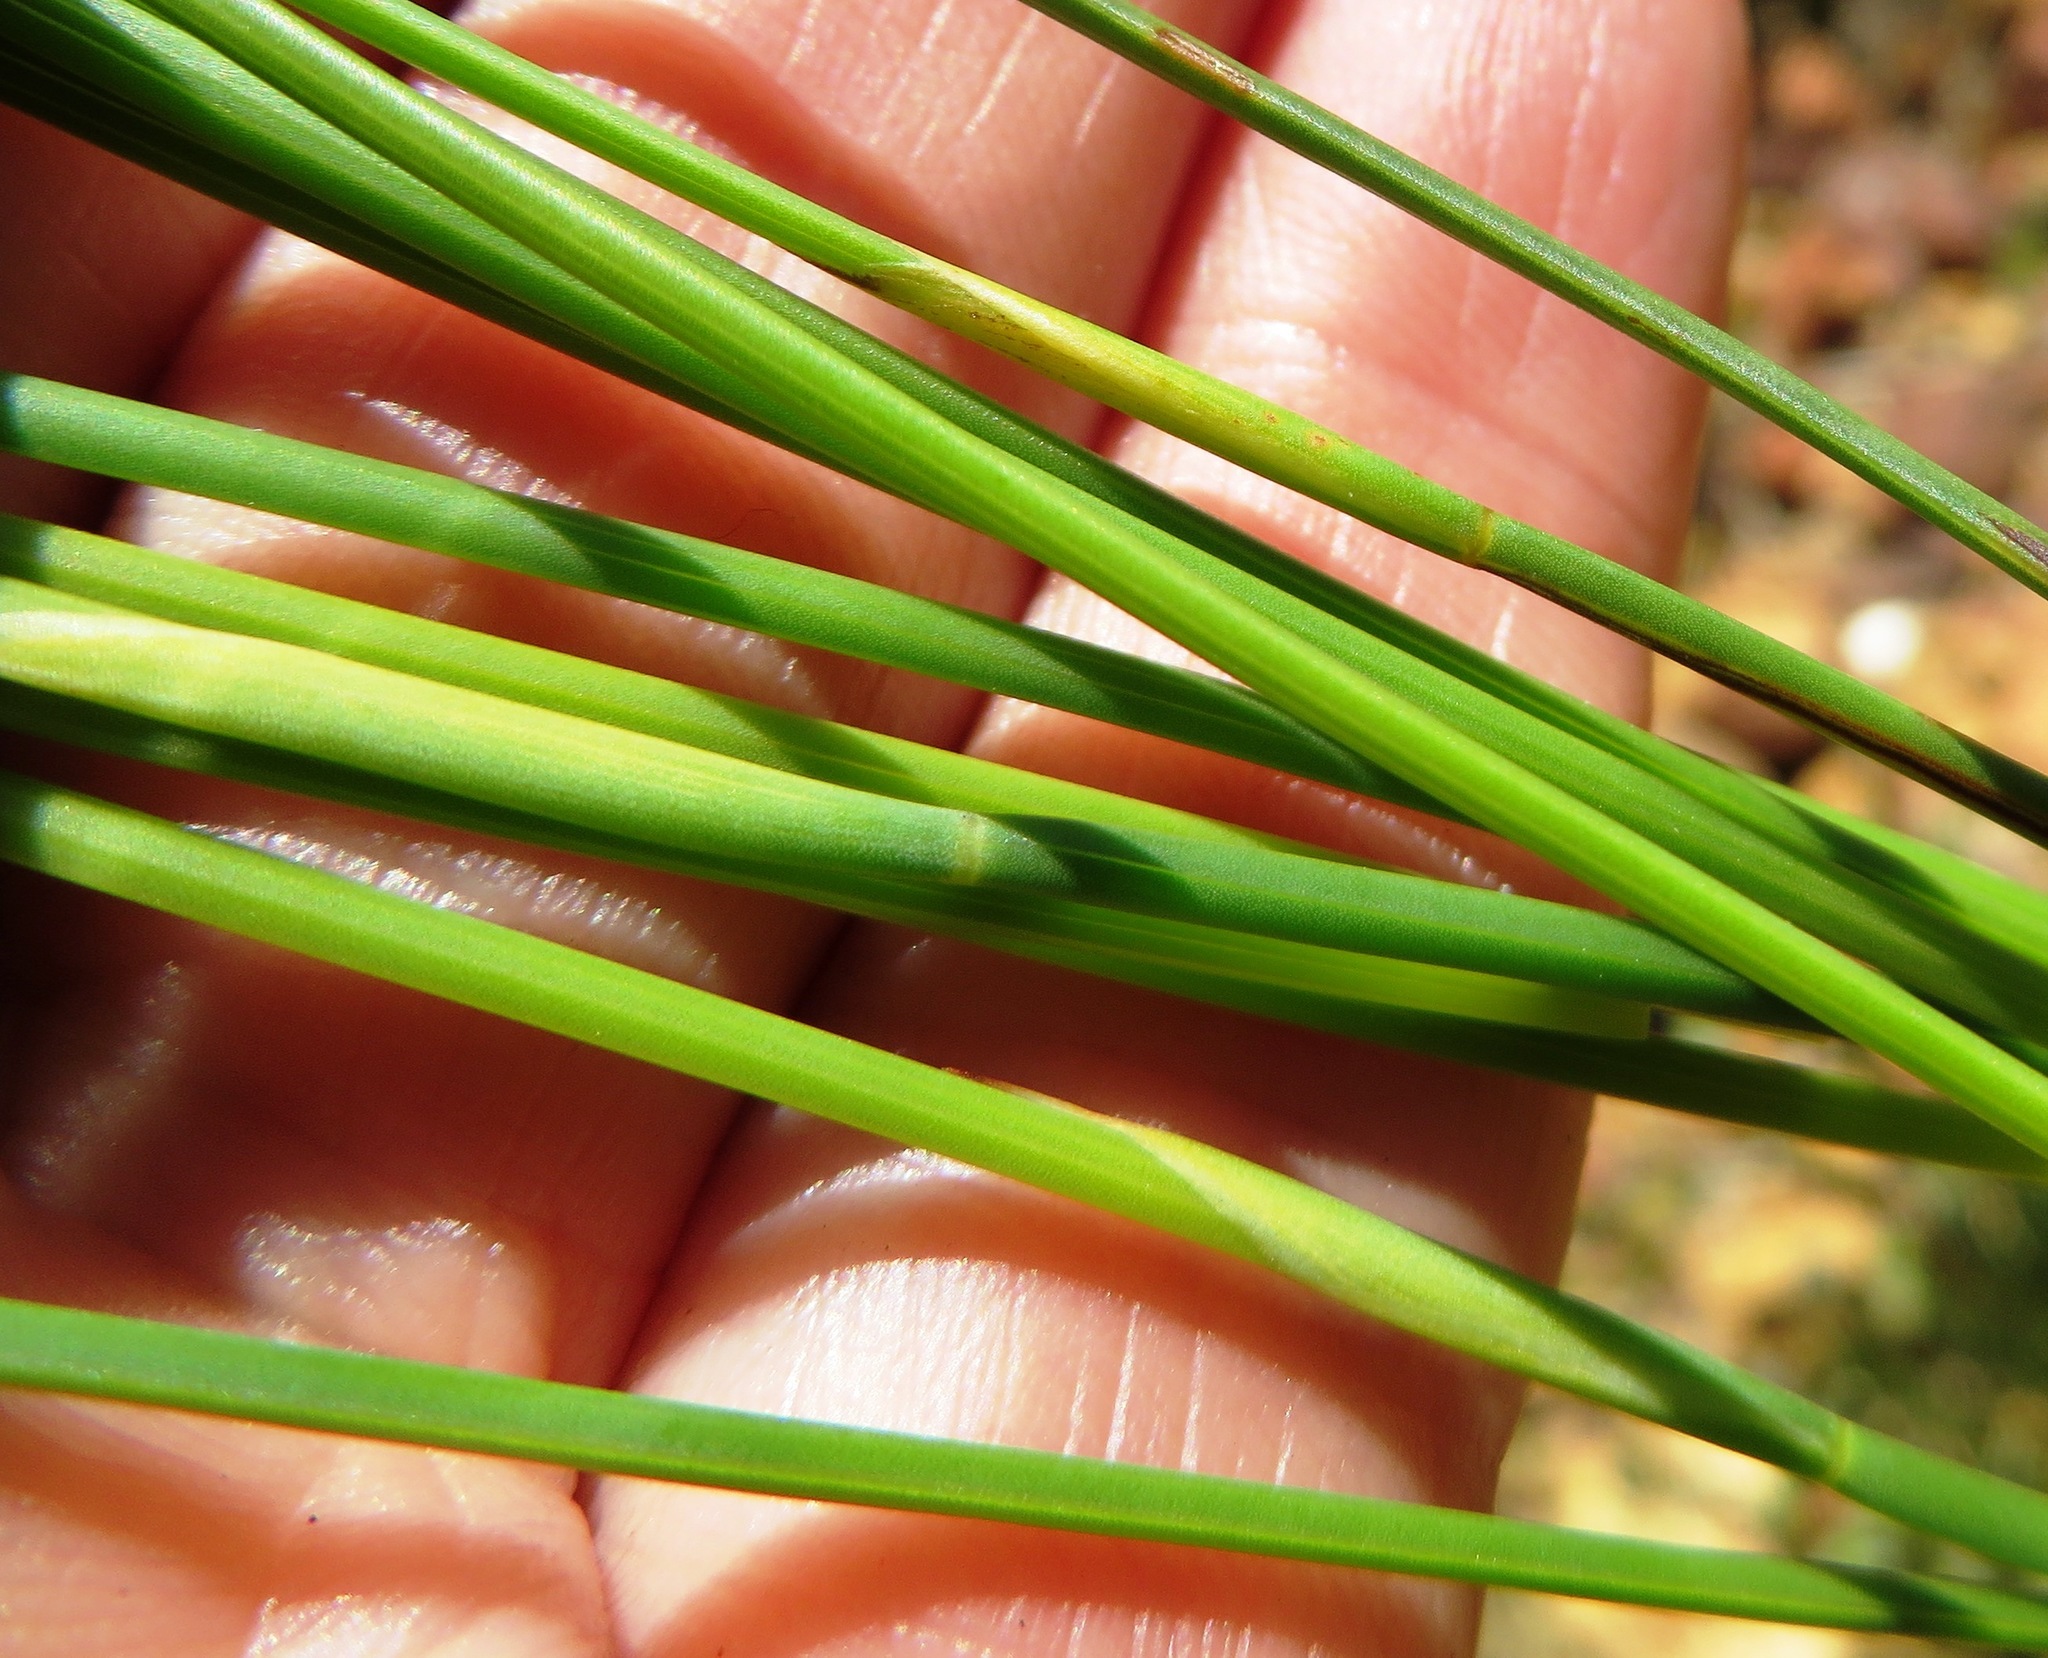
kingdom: Plantae
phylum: Tracheophyta
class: Liliopsida
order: Poales
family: Restionaceae
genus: Hypodiscus
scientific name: Hypodiscus willdenowia
